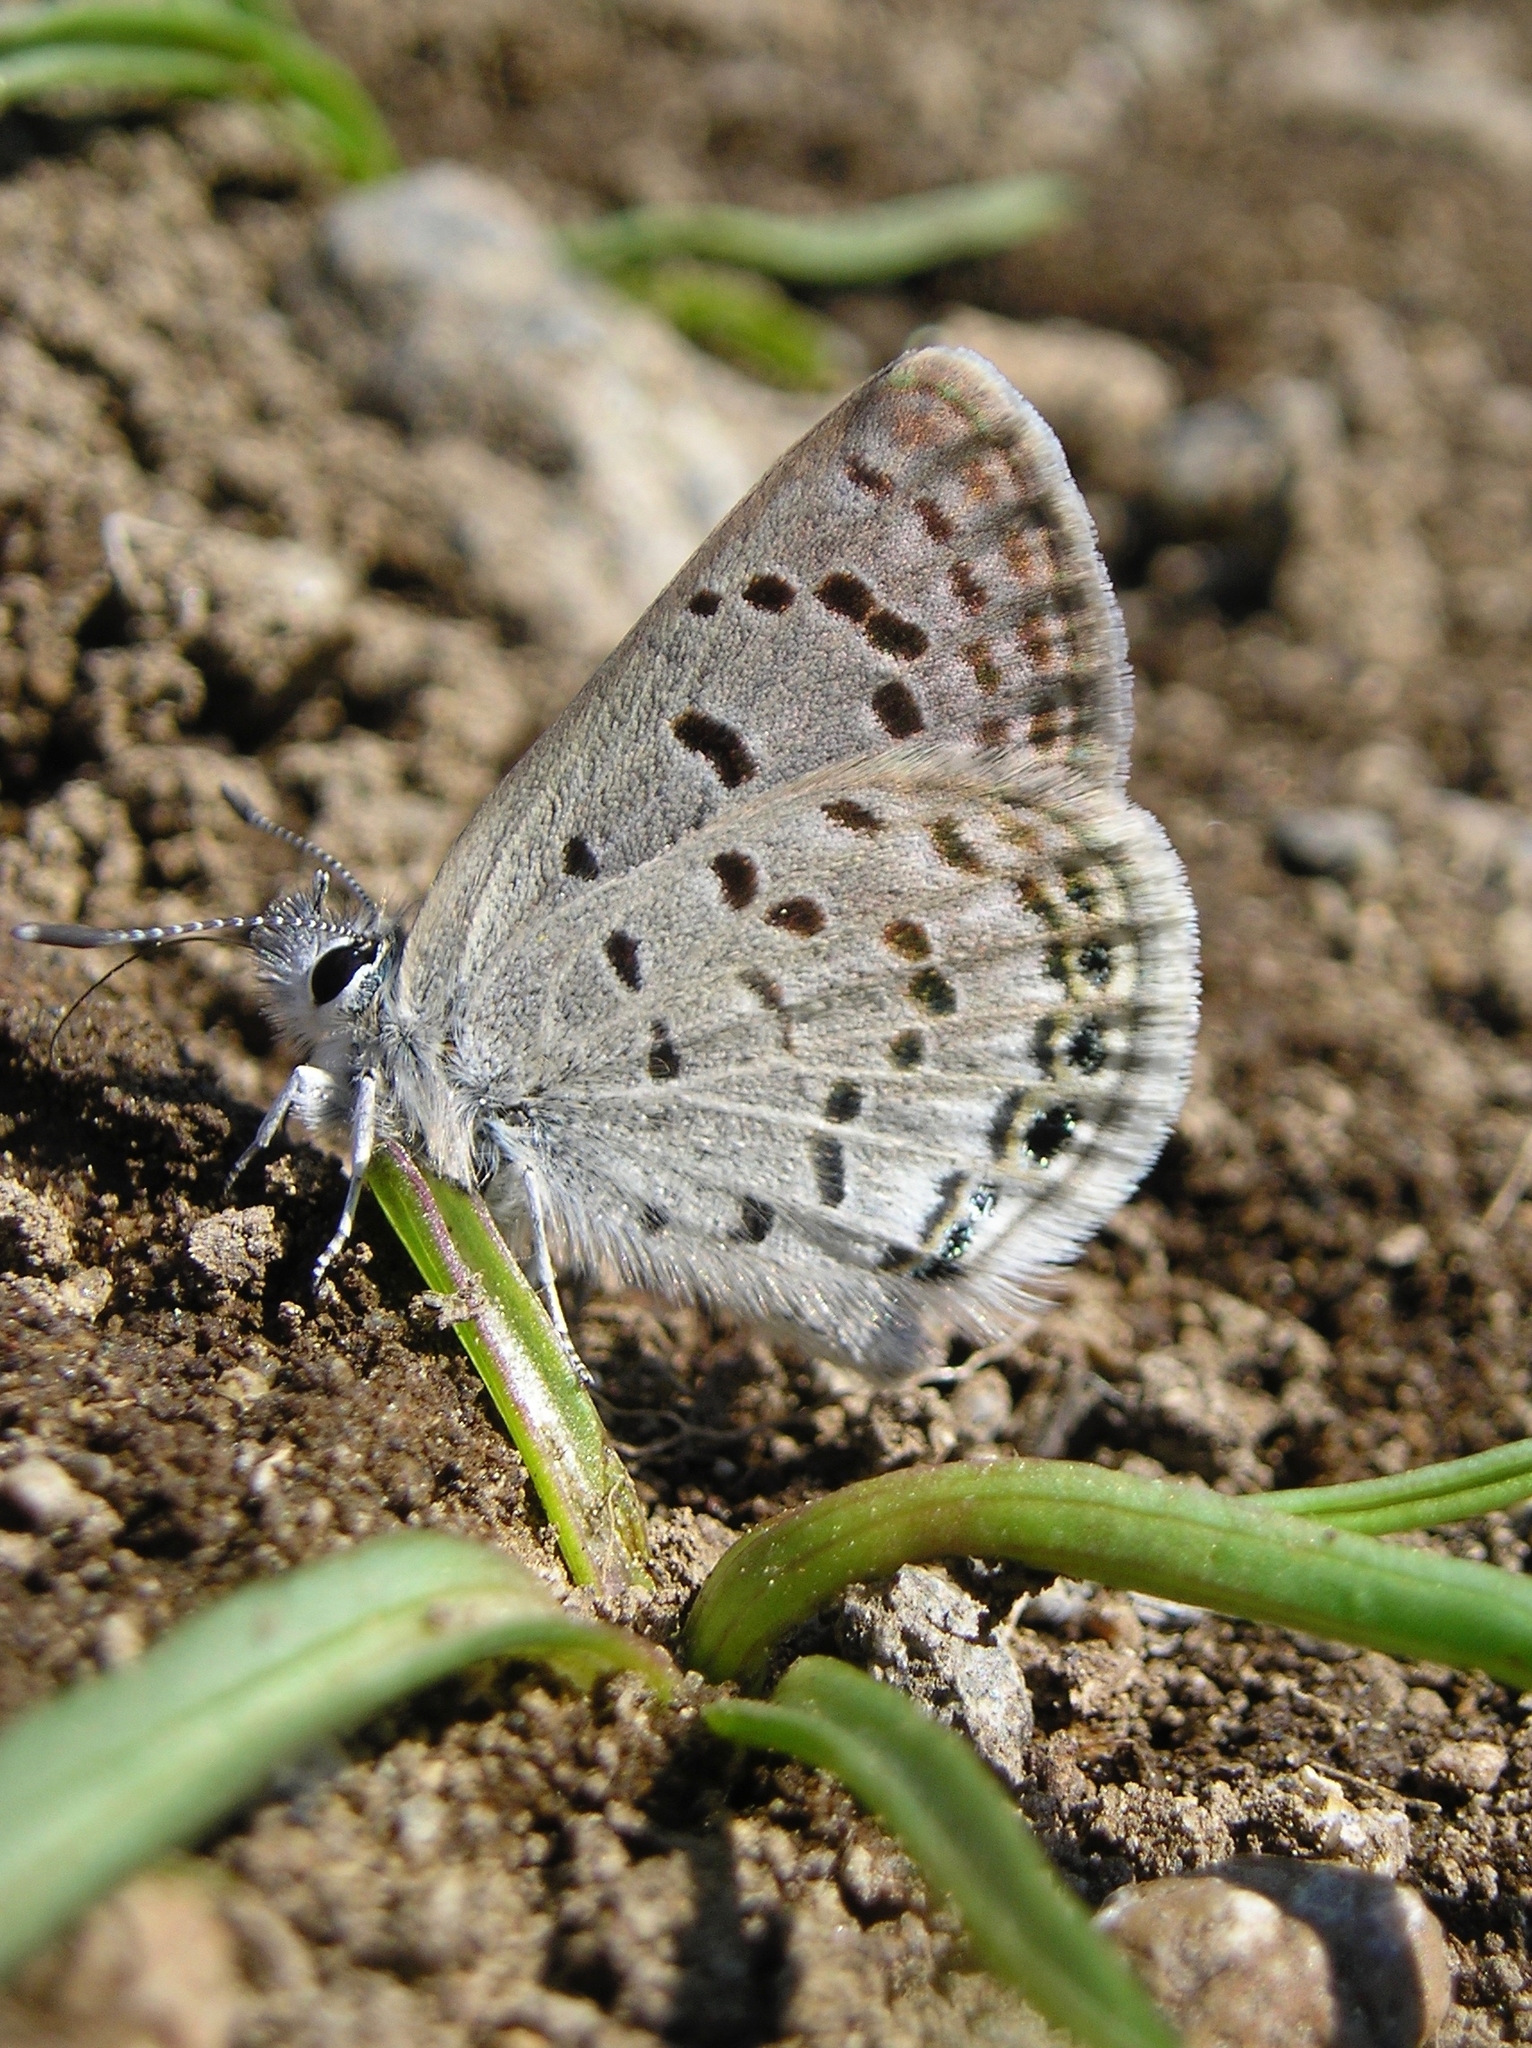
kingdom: Animalia
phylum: Arthropoda
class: Insecta
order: Lepidoptera
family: Lycaenidae
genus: Icaricia
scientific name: Icaricia shasta
